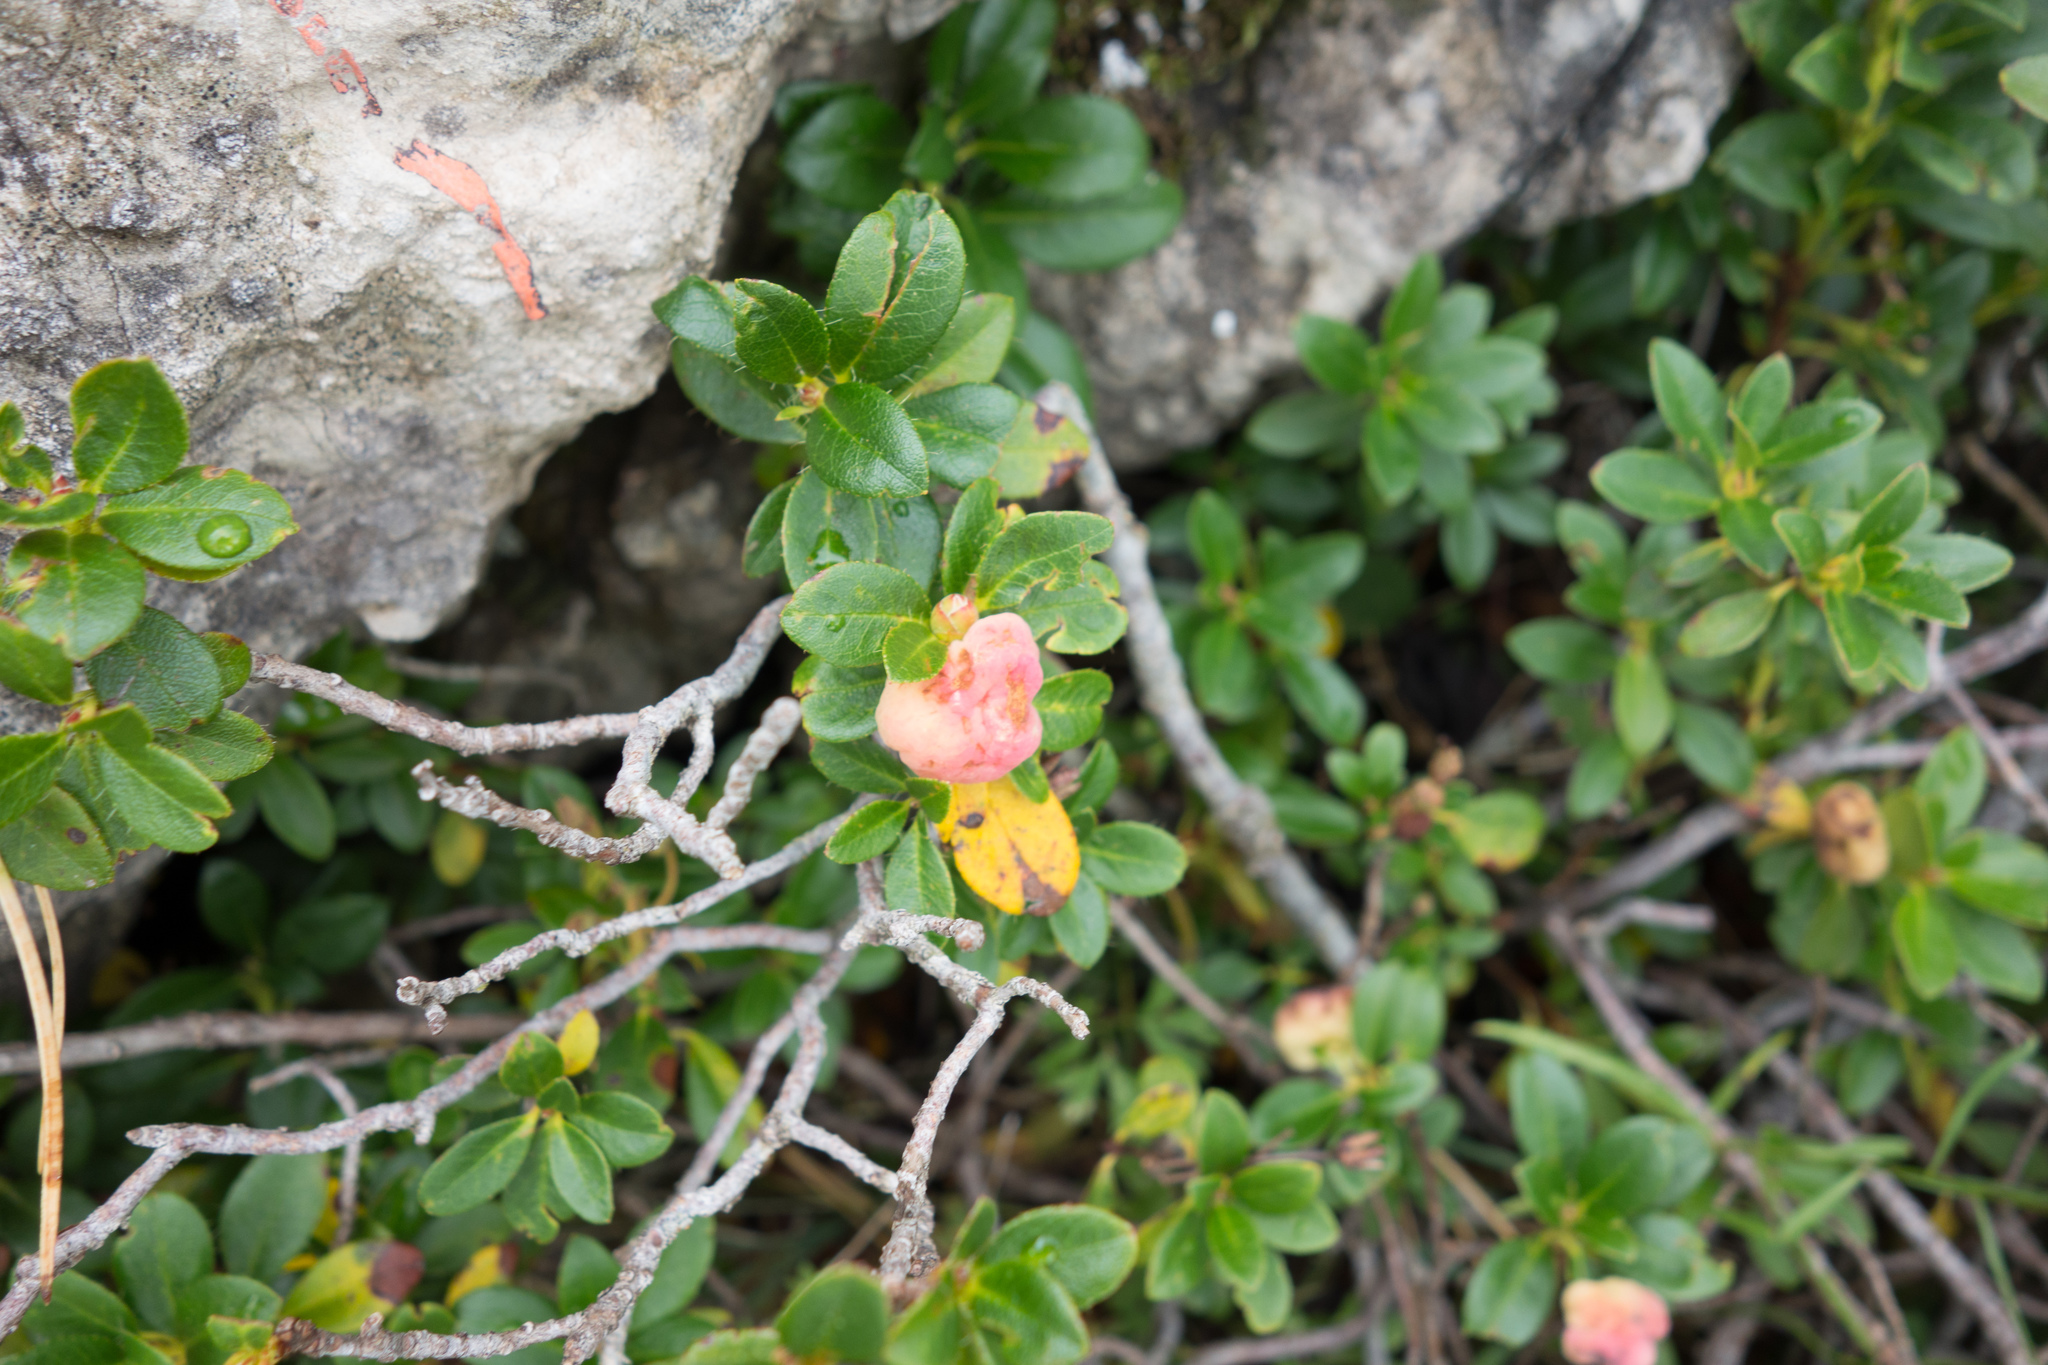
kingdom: Plantae
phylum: Tracheophyta
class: Magnoliopsida
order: Ericales
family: Ericaceae
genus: Rhododendron
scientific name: Rhododendron hirsutum
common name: Hairy alpenrose
